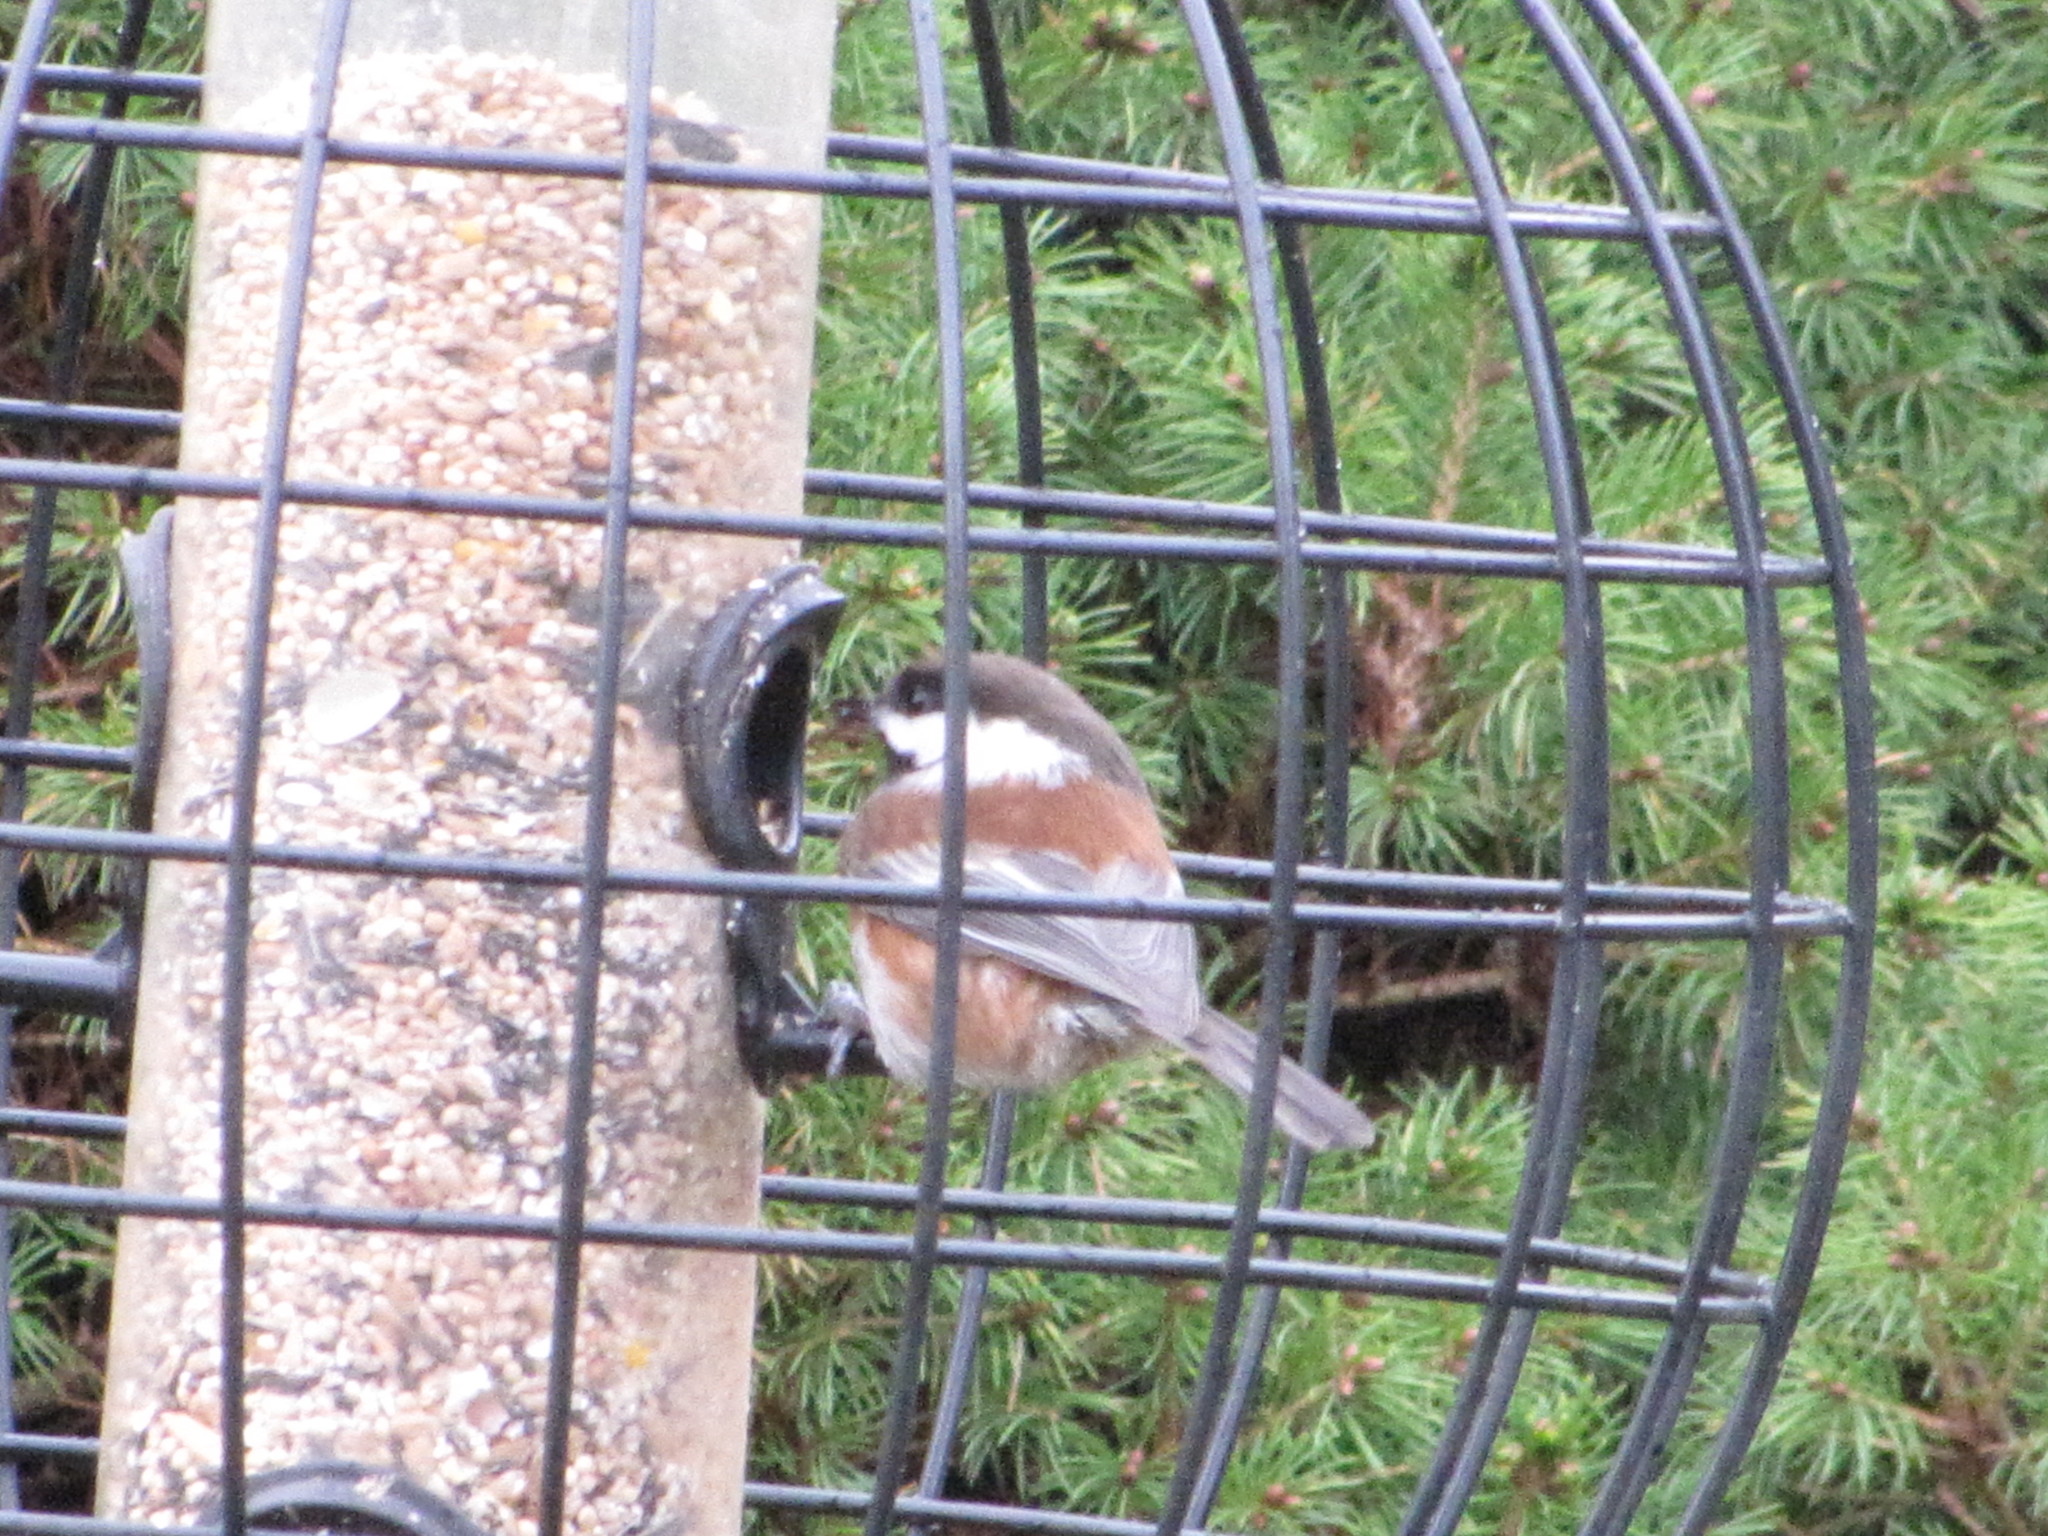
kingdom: Animalia
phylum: Chordata
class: Aves
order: Passeriformes
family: Paridae
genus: Poecile
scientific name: Poecile rufescens
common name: Chestnut-backed chickadee
